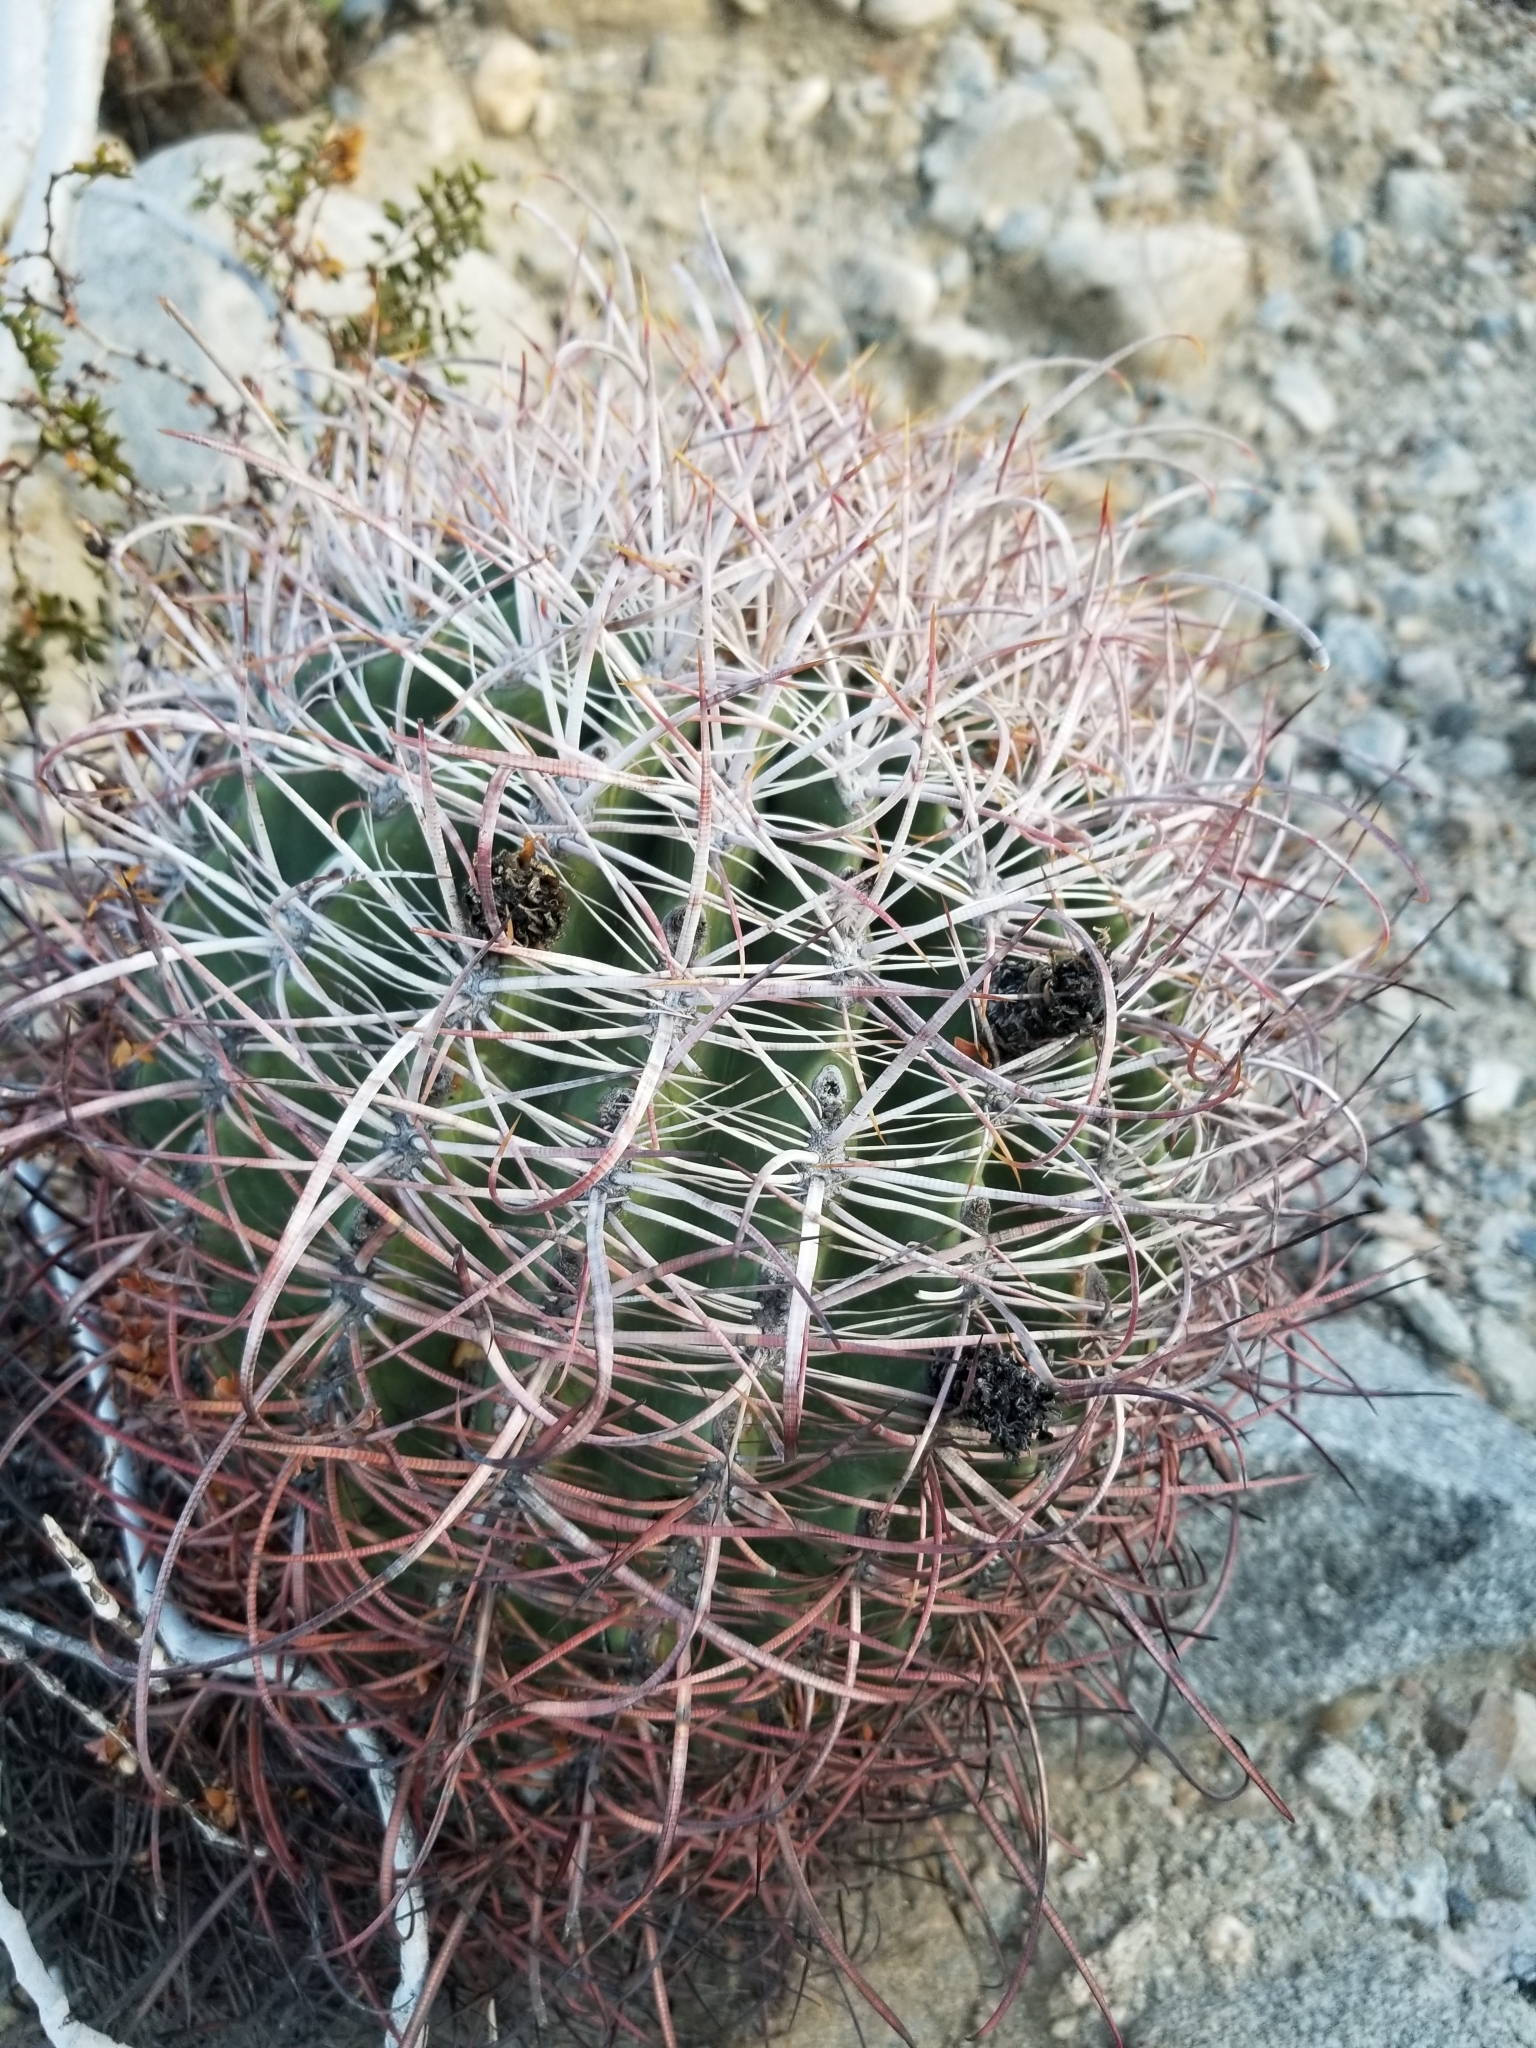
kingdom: Plantae
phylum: Tracheophyta
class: Magnoliopsida
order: Caryophyllales
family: Cactaceae
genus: Ferocactus
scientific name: Ferocactus cylindraceus
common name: California barrel cactus
